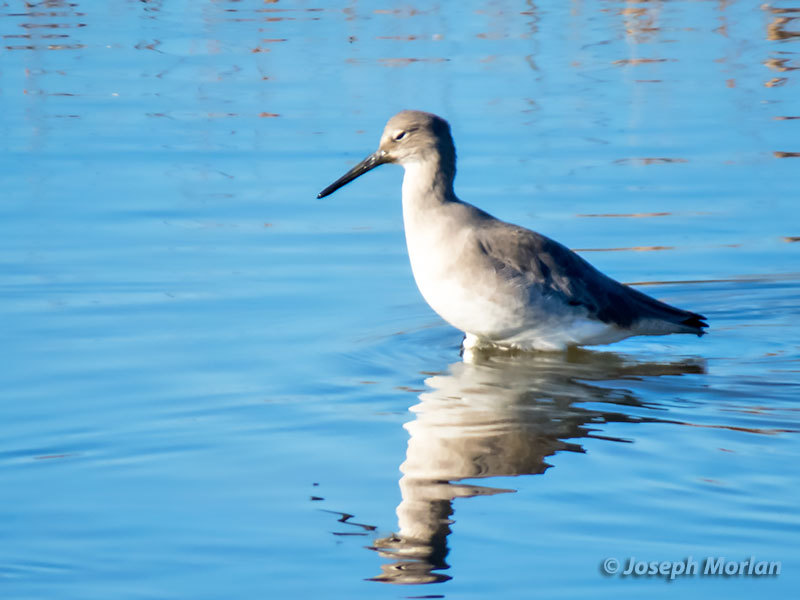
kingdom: Animalia
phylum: Chordata
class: Aves
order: Charadriiformes
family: Scolopacidae
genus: Tringa
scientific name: Tringa semipalmata
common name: Willet
